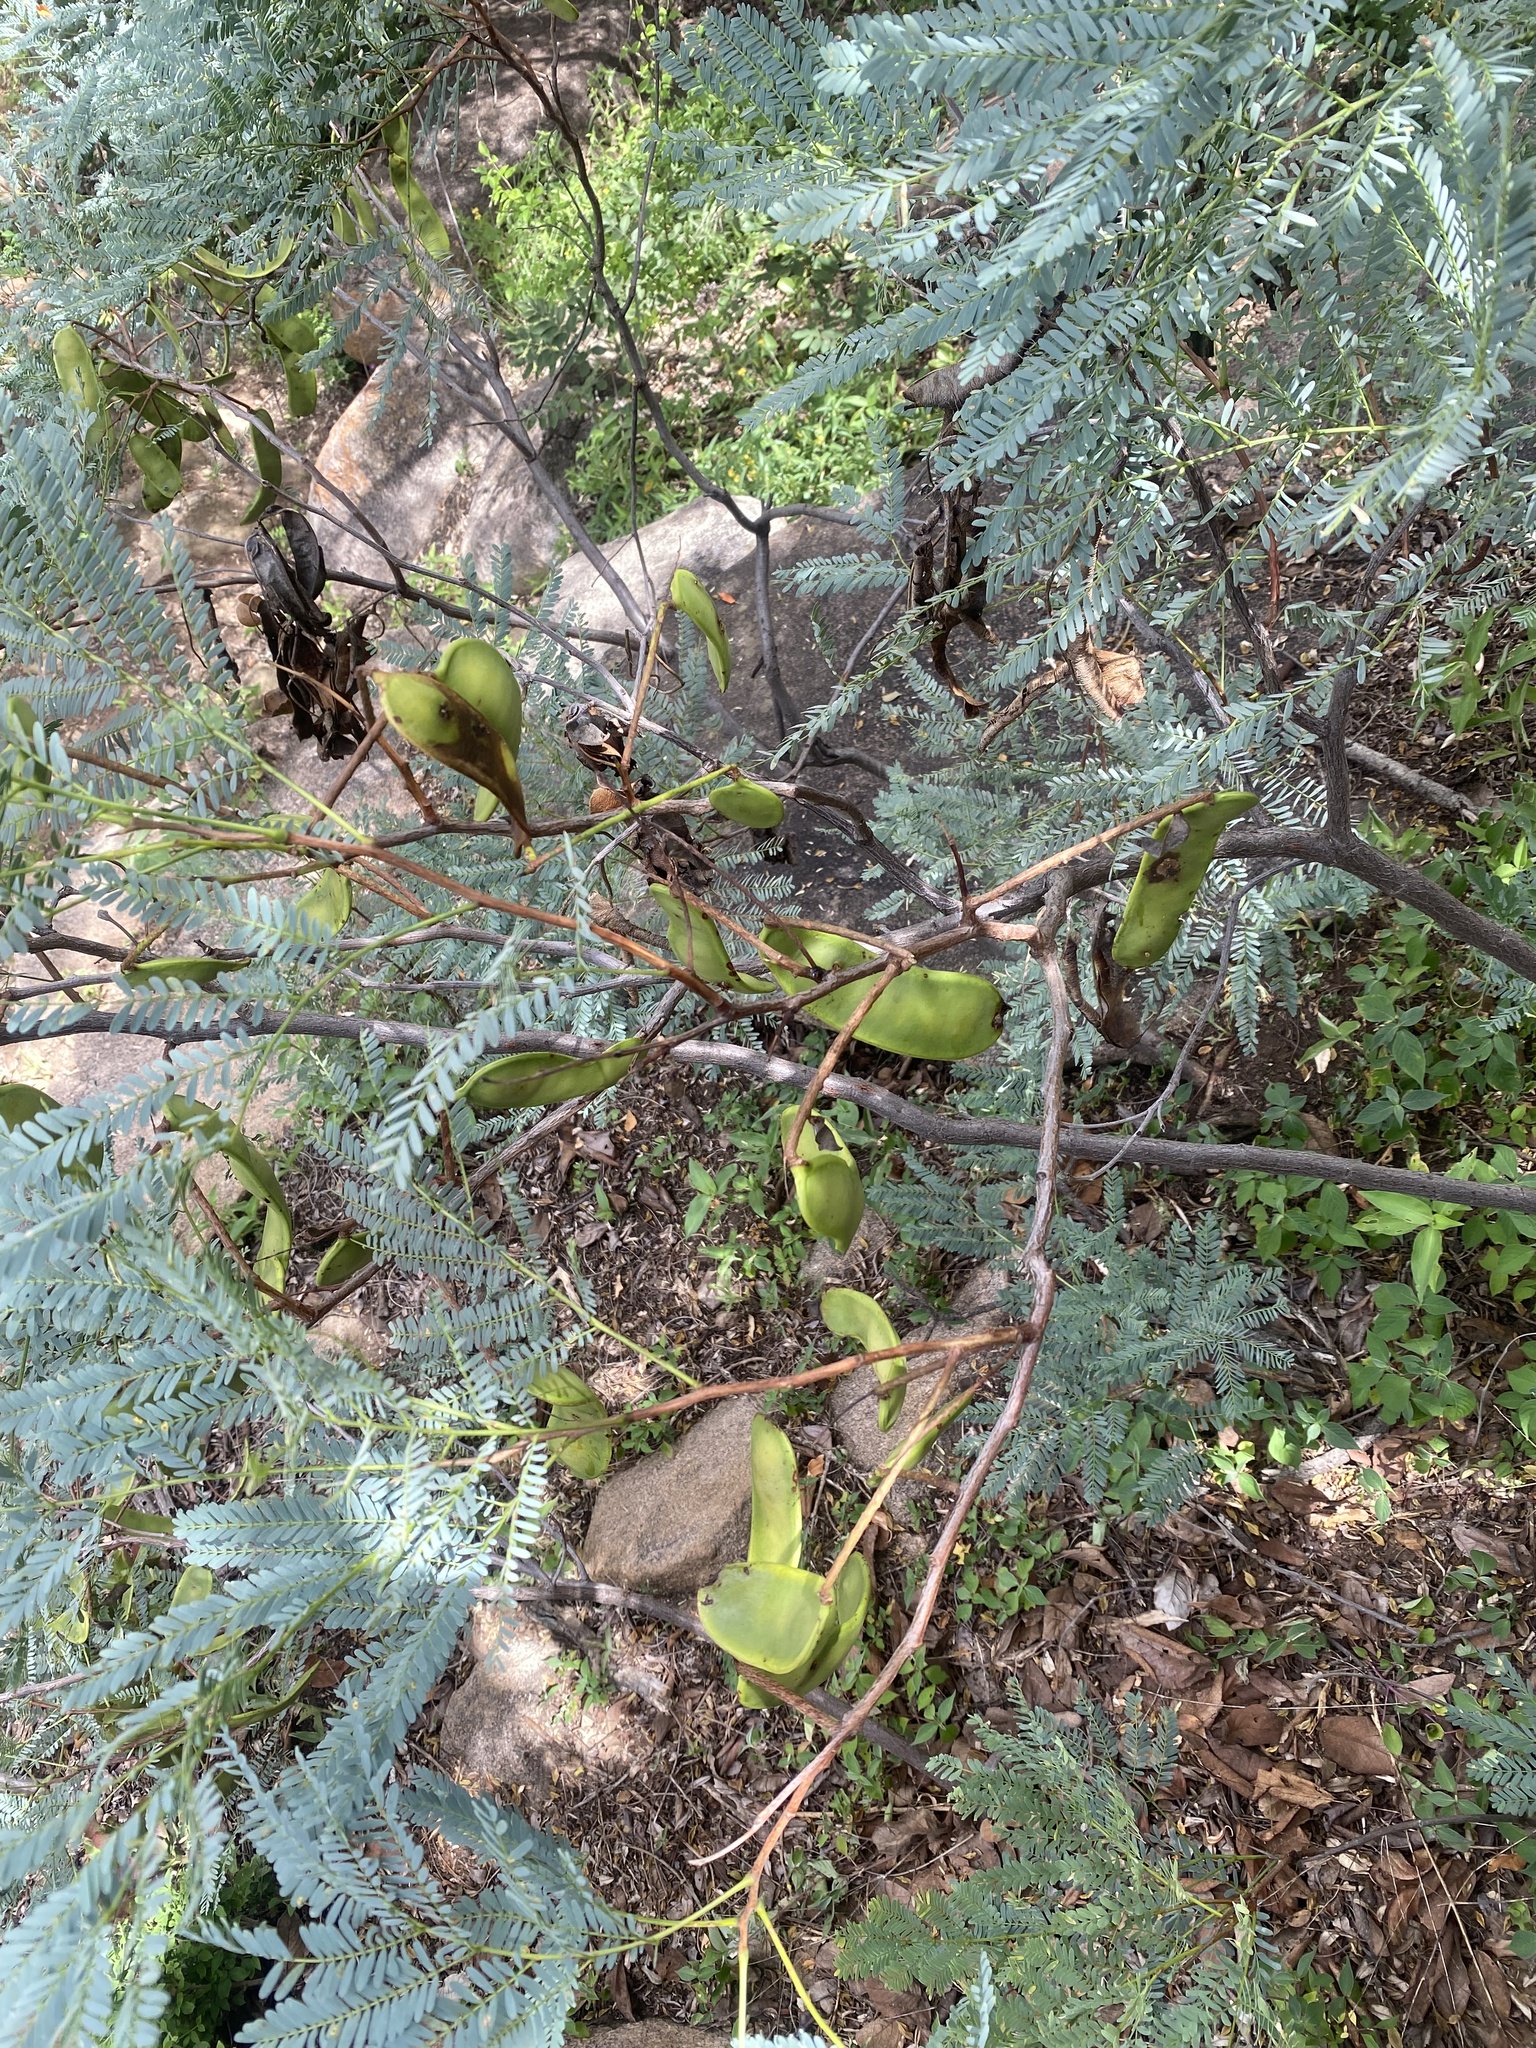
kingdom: Plantae
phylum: Tracheophyta
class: Magnoliopsida
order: Fabales
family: Fabaceae
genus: Elephantorrhiza
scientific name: Elephantorrhiza burkei
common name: Broad-pod elephant-root
